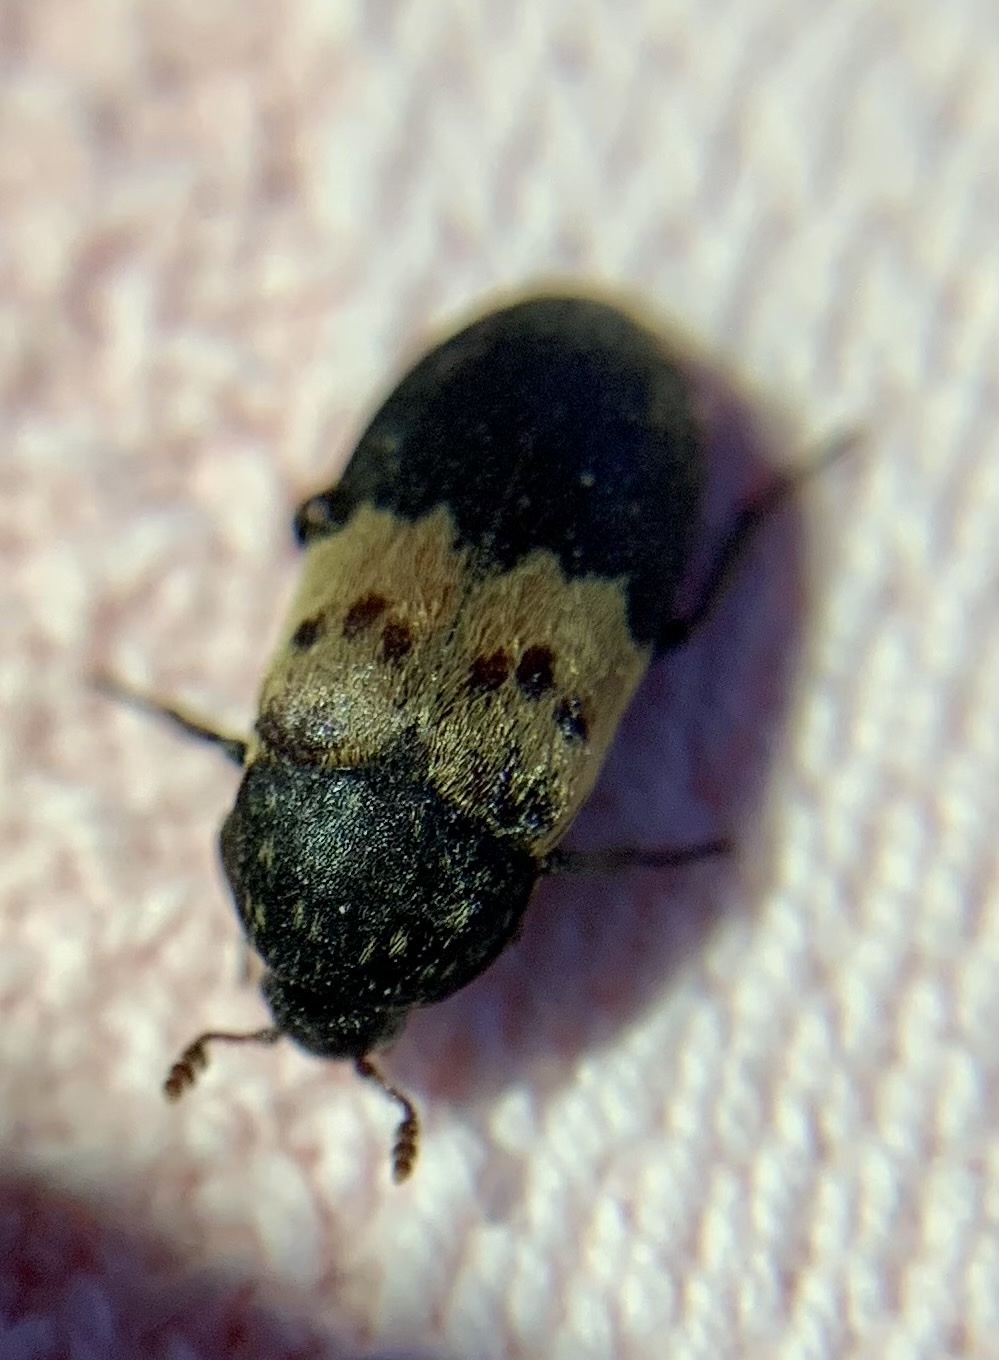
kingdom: Animalia
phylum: Arthropoda
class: Insecta
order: Coleoptera
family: Dermestidae
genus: Dermestes
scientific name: Dermestes lardarius
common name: Larder beetle
